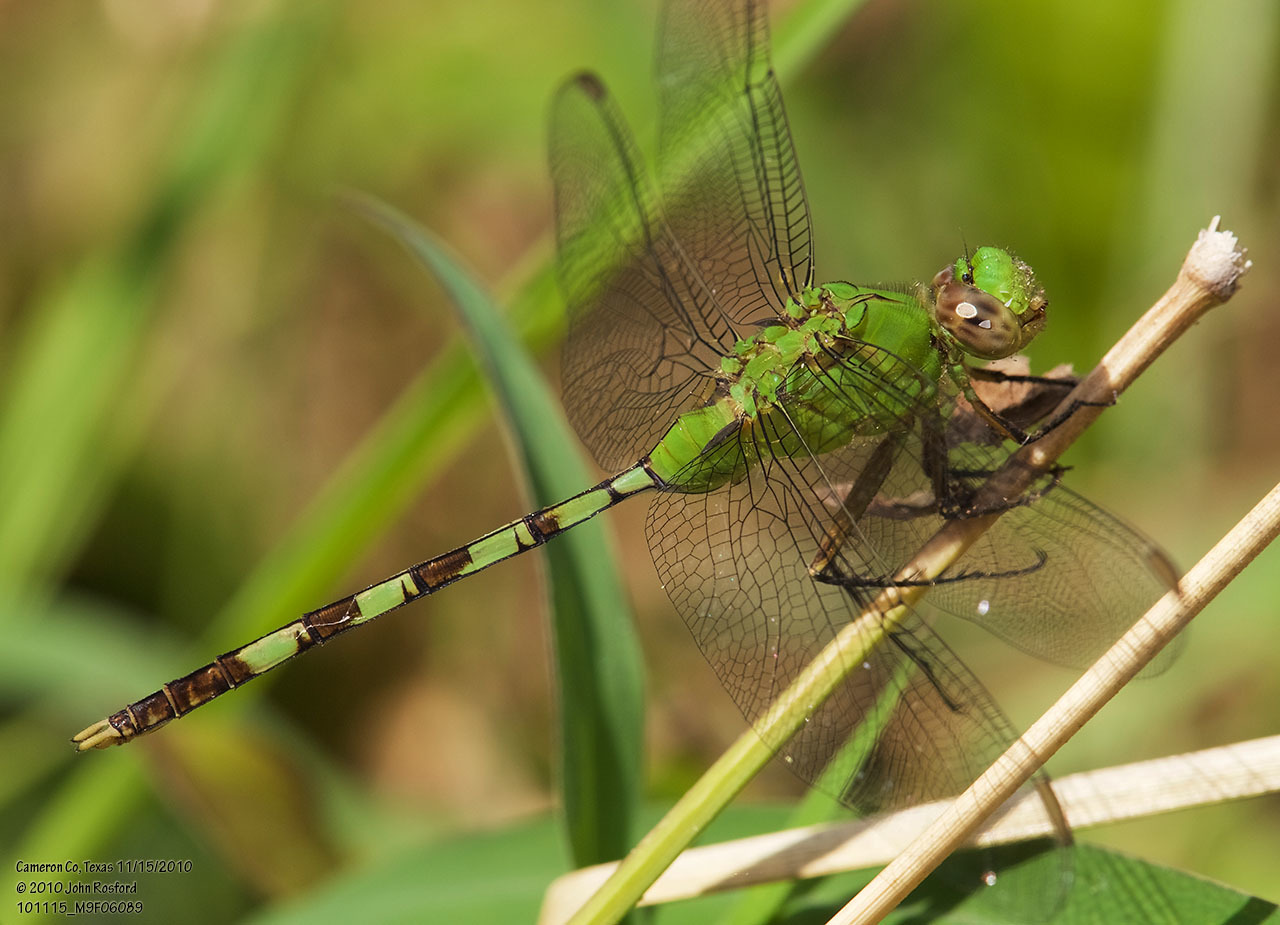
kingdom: Animalia
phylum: Arthropoda
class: Insecta
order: Odonata
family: Libellulidae
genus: Erythemis
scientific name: Erythemis vesiculosa
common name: Great pondhawk
